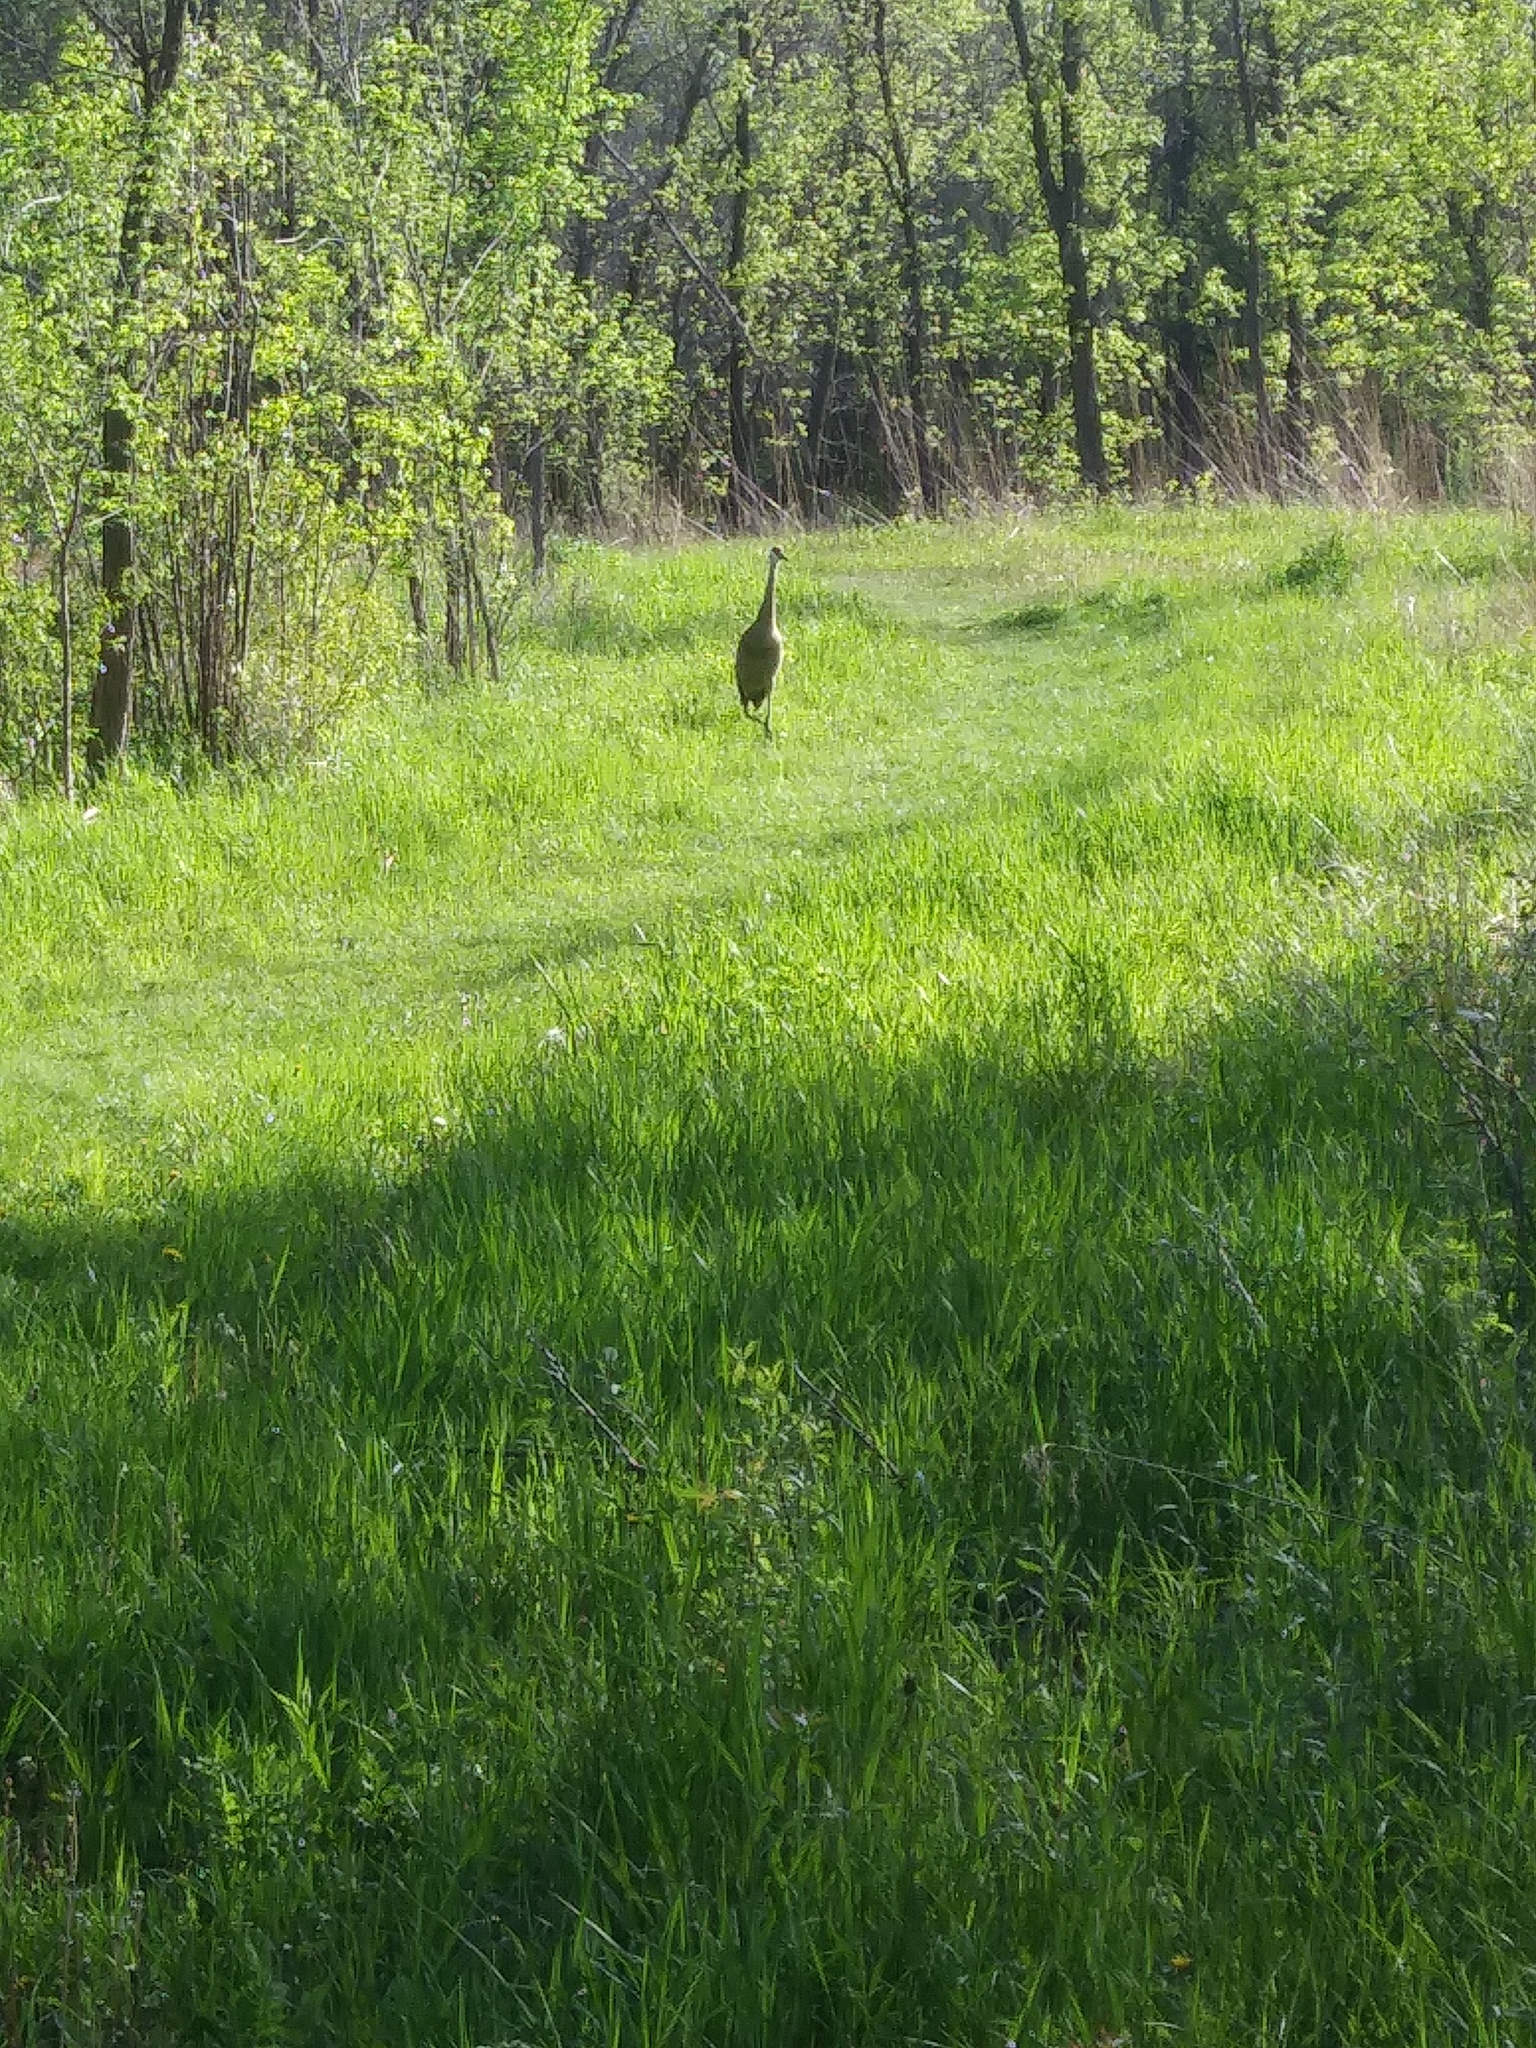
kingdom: Animalia
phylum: Chordata
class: Aves
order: Gruiformes
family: Gruidae
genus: Grus
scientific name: Grus canadensis
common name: Sandhill crane
